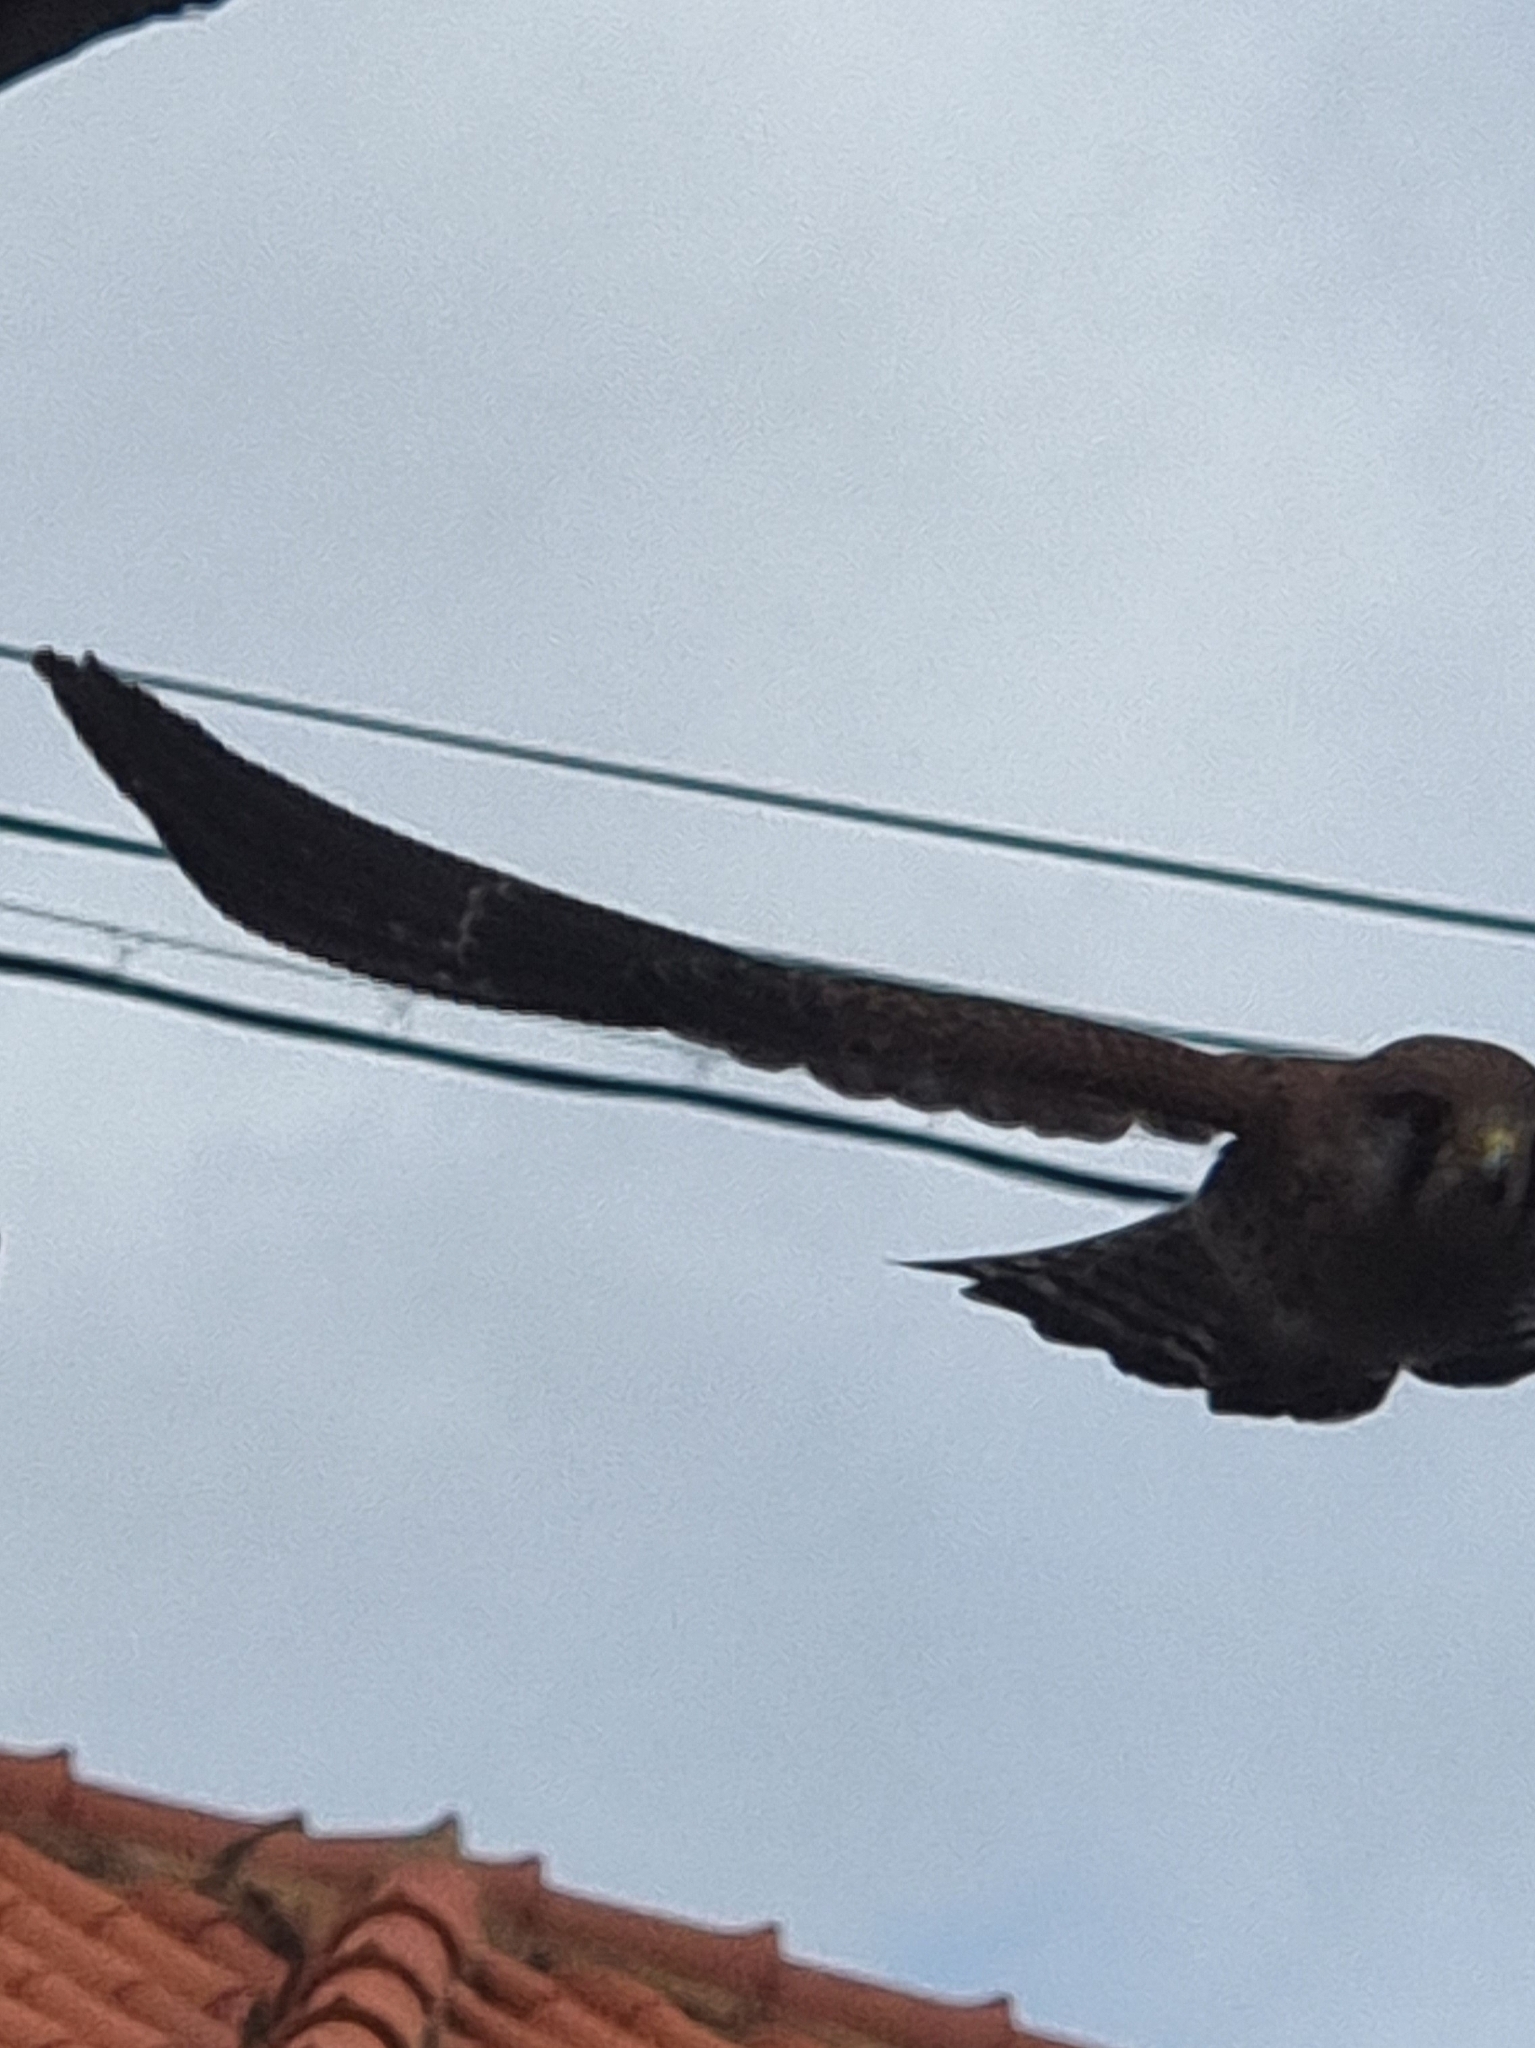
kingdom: Animalia
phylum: Chordata
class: Aves
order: Falconiformes
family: Falconidae
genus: Falco
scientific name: Falco tinnunculus
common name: Common kestrel
